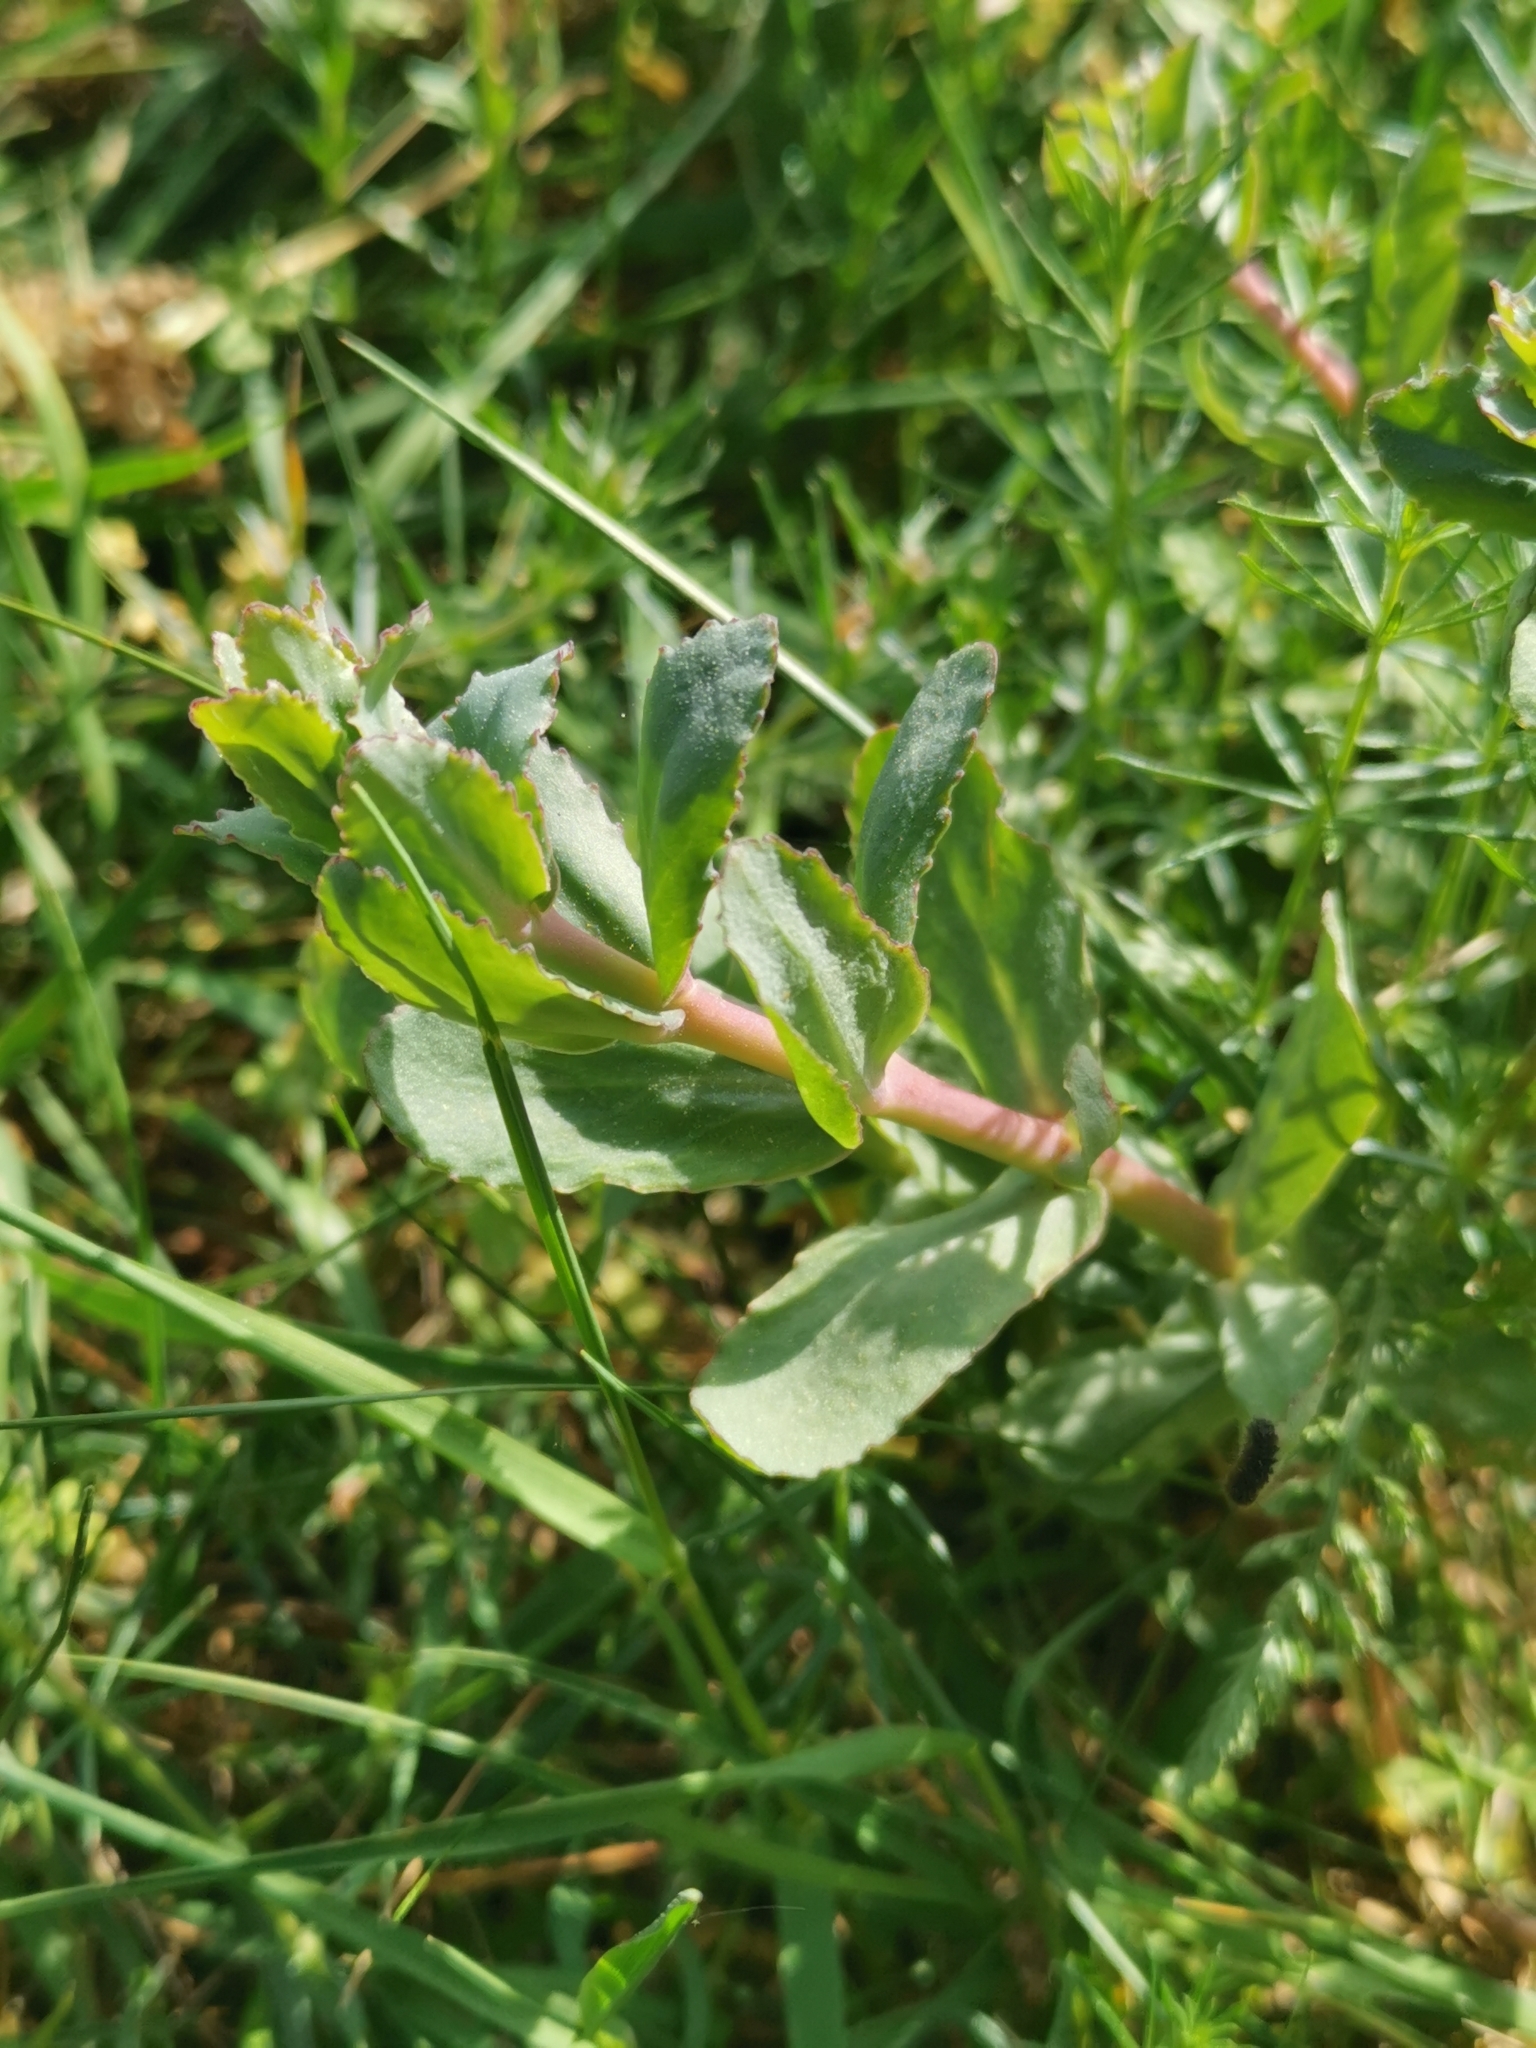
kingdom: Plantae
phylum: Tracheophyta
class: Magnoliopsida
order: Saxifragales
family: Crassulaceae
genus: Hylotelephium
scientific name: Hylotelephium maximum
